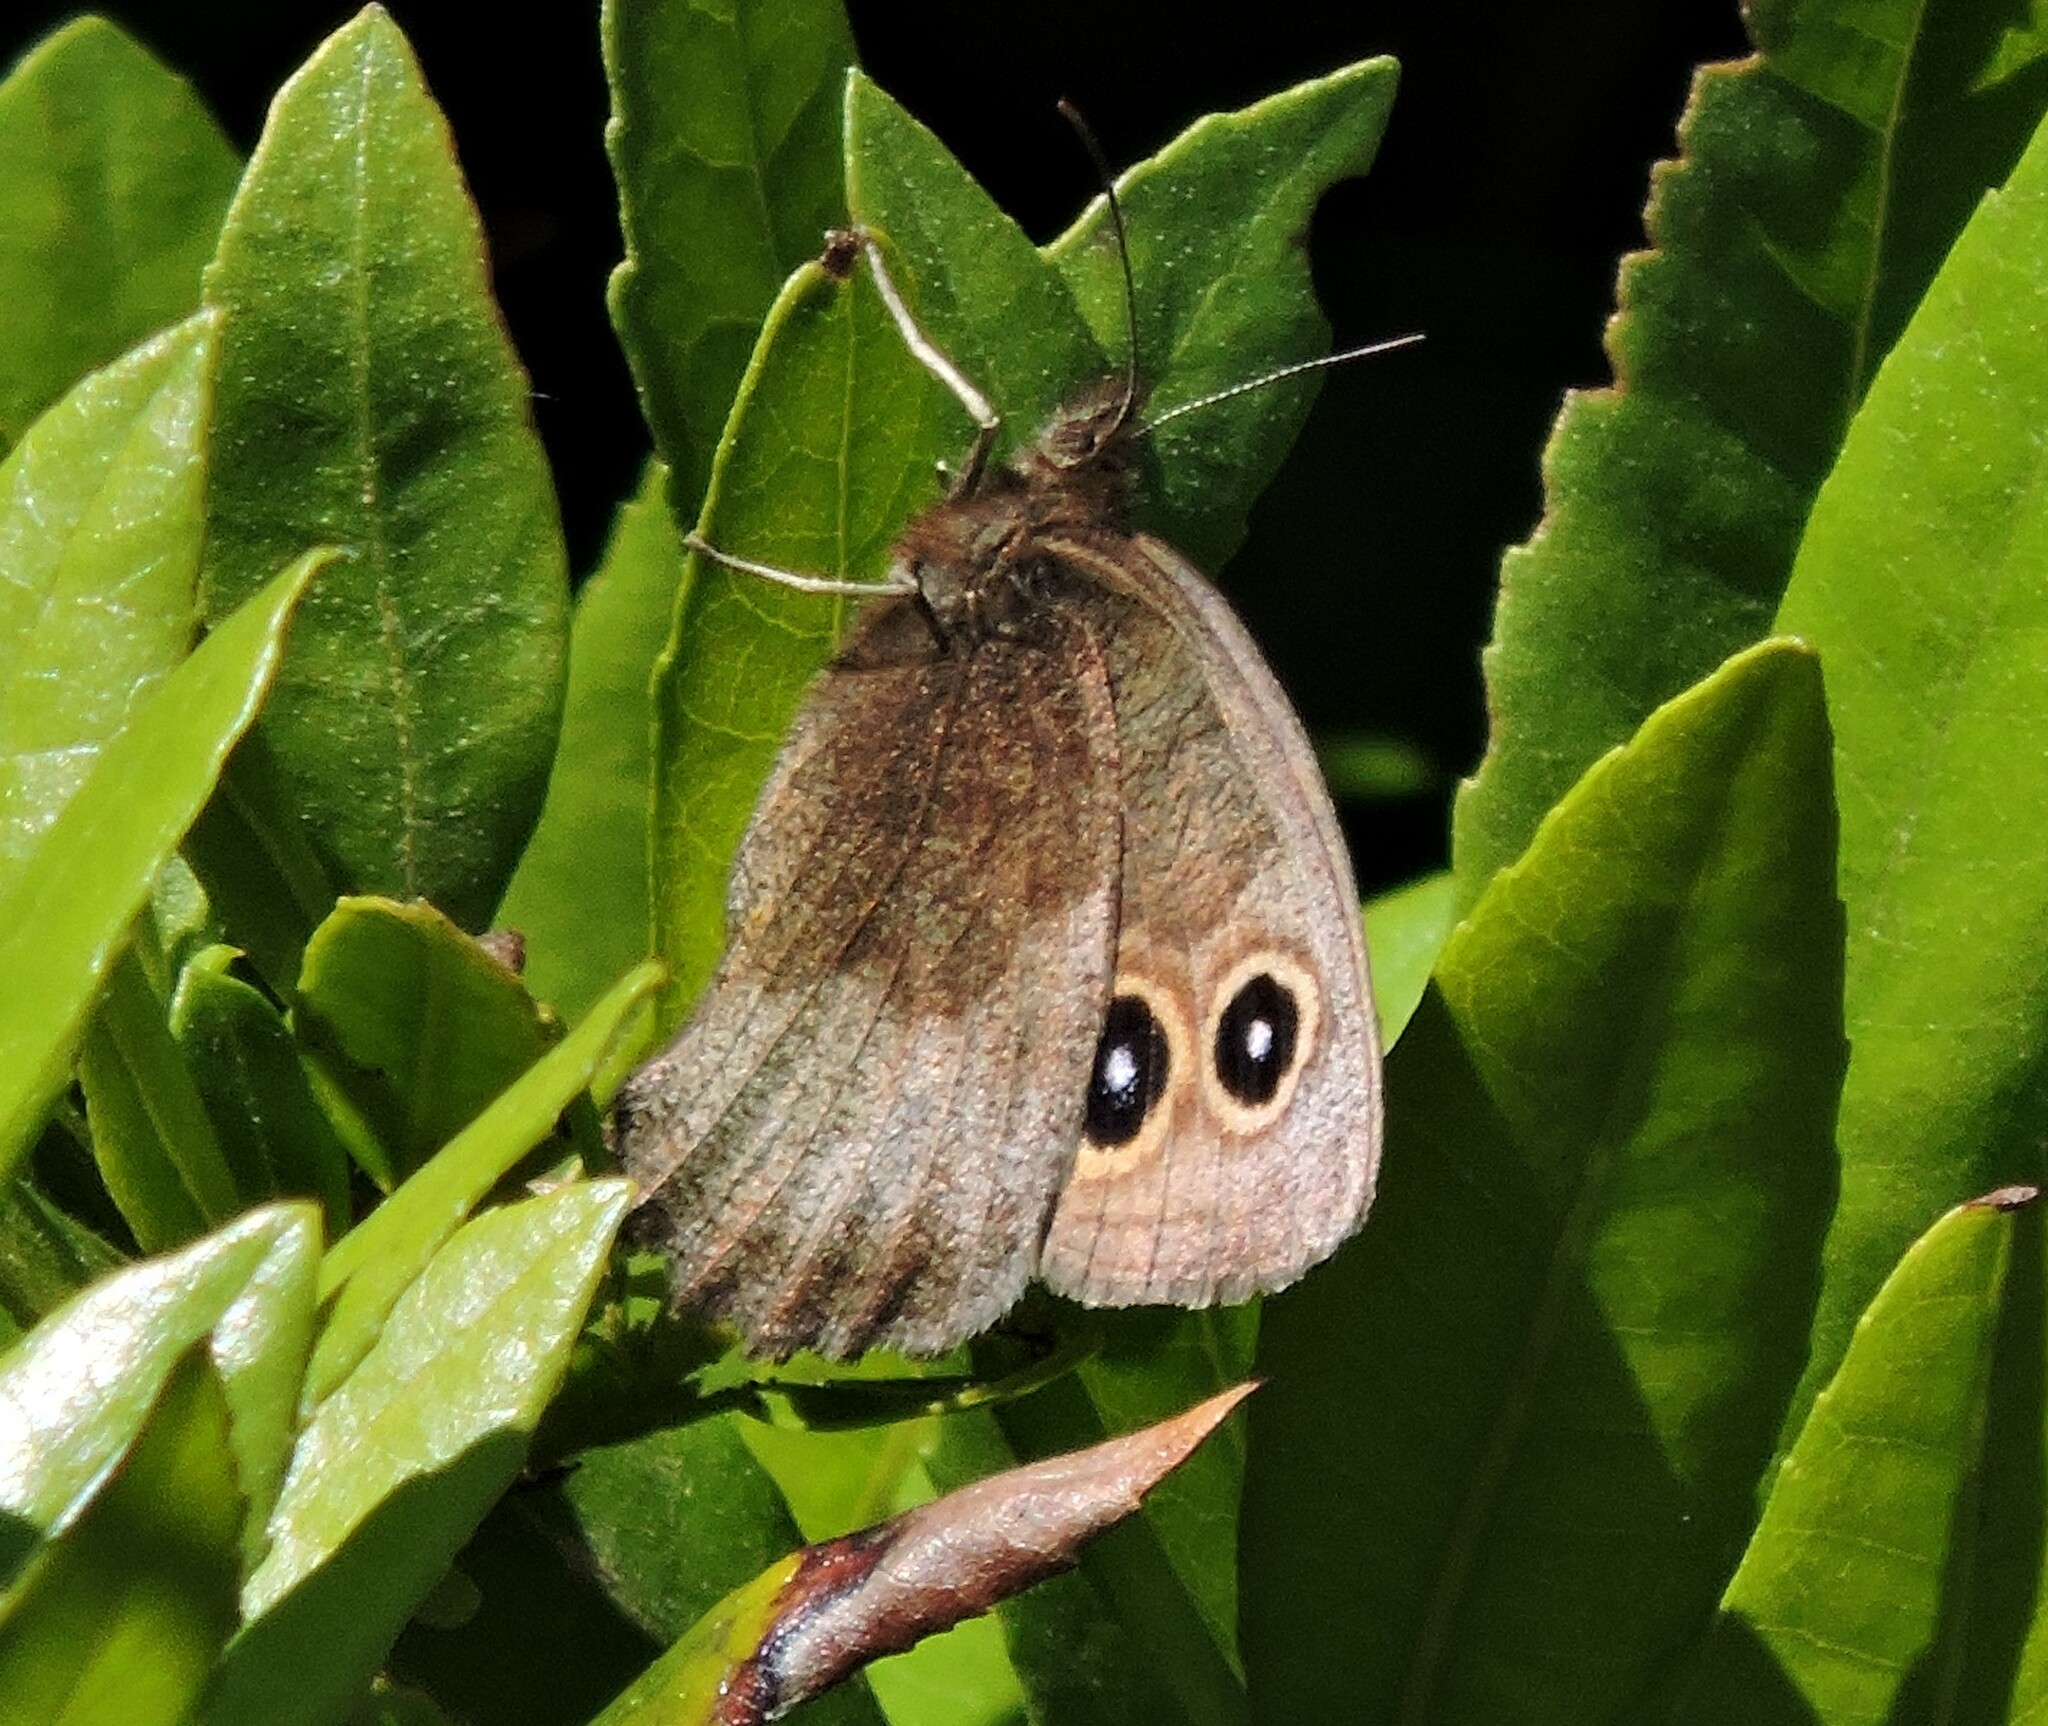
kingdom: Animalia
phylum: Arthropoda
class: Insecta
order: Lepidoptera
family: Nymphalidae
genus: Cercyonis
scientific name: Cercyonis pegala
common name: Common wood-nymph
